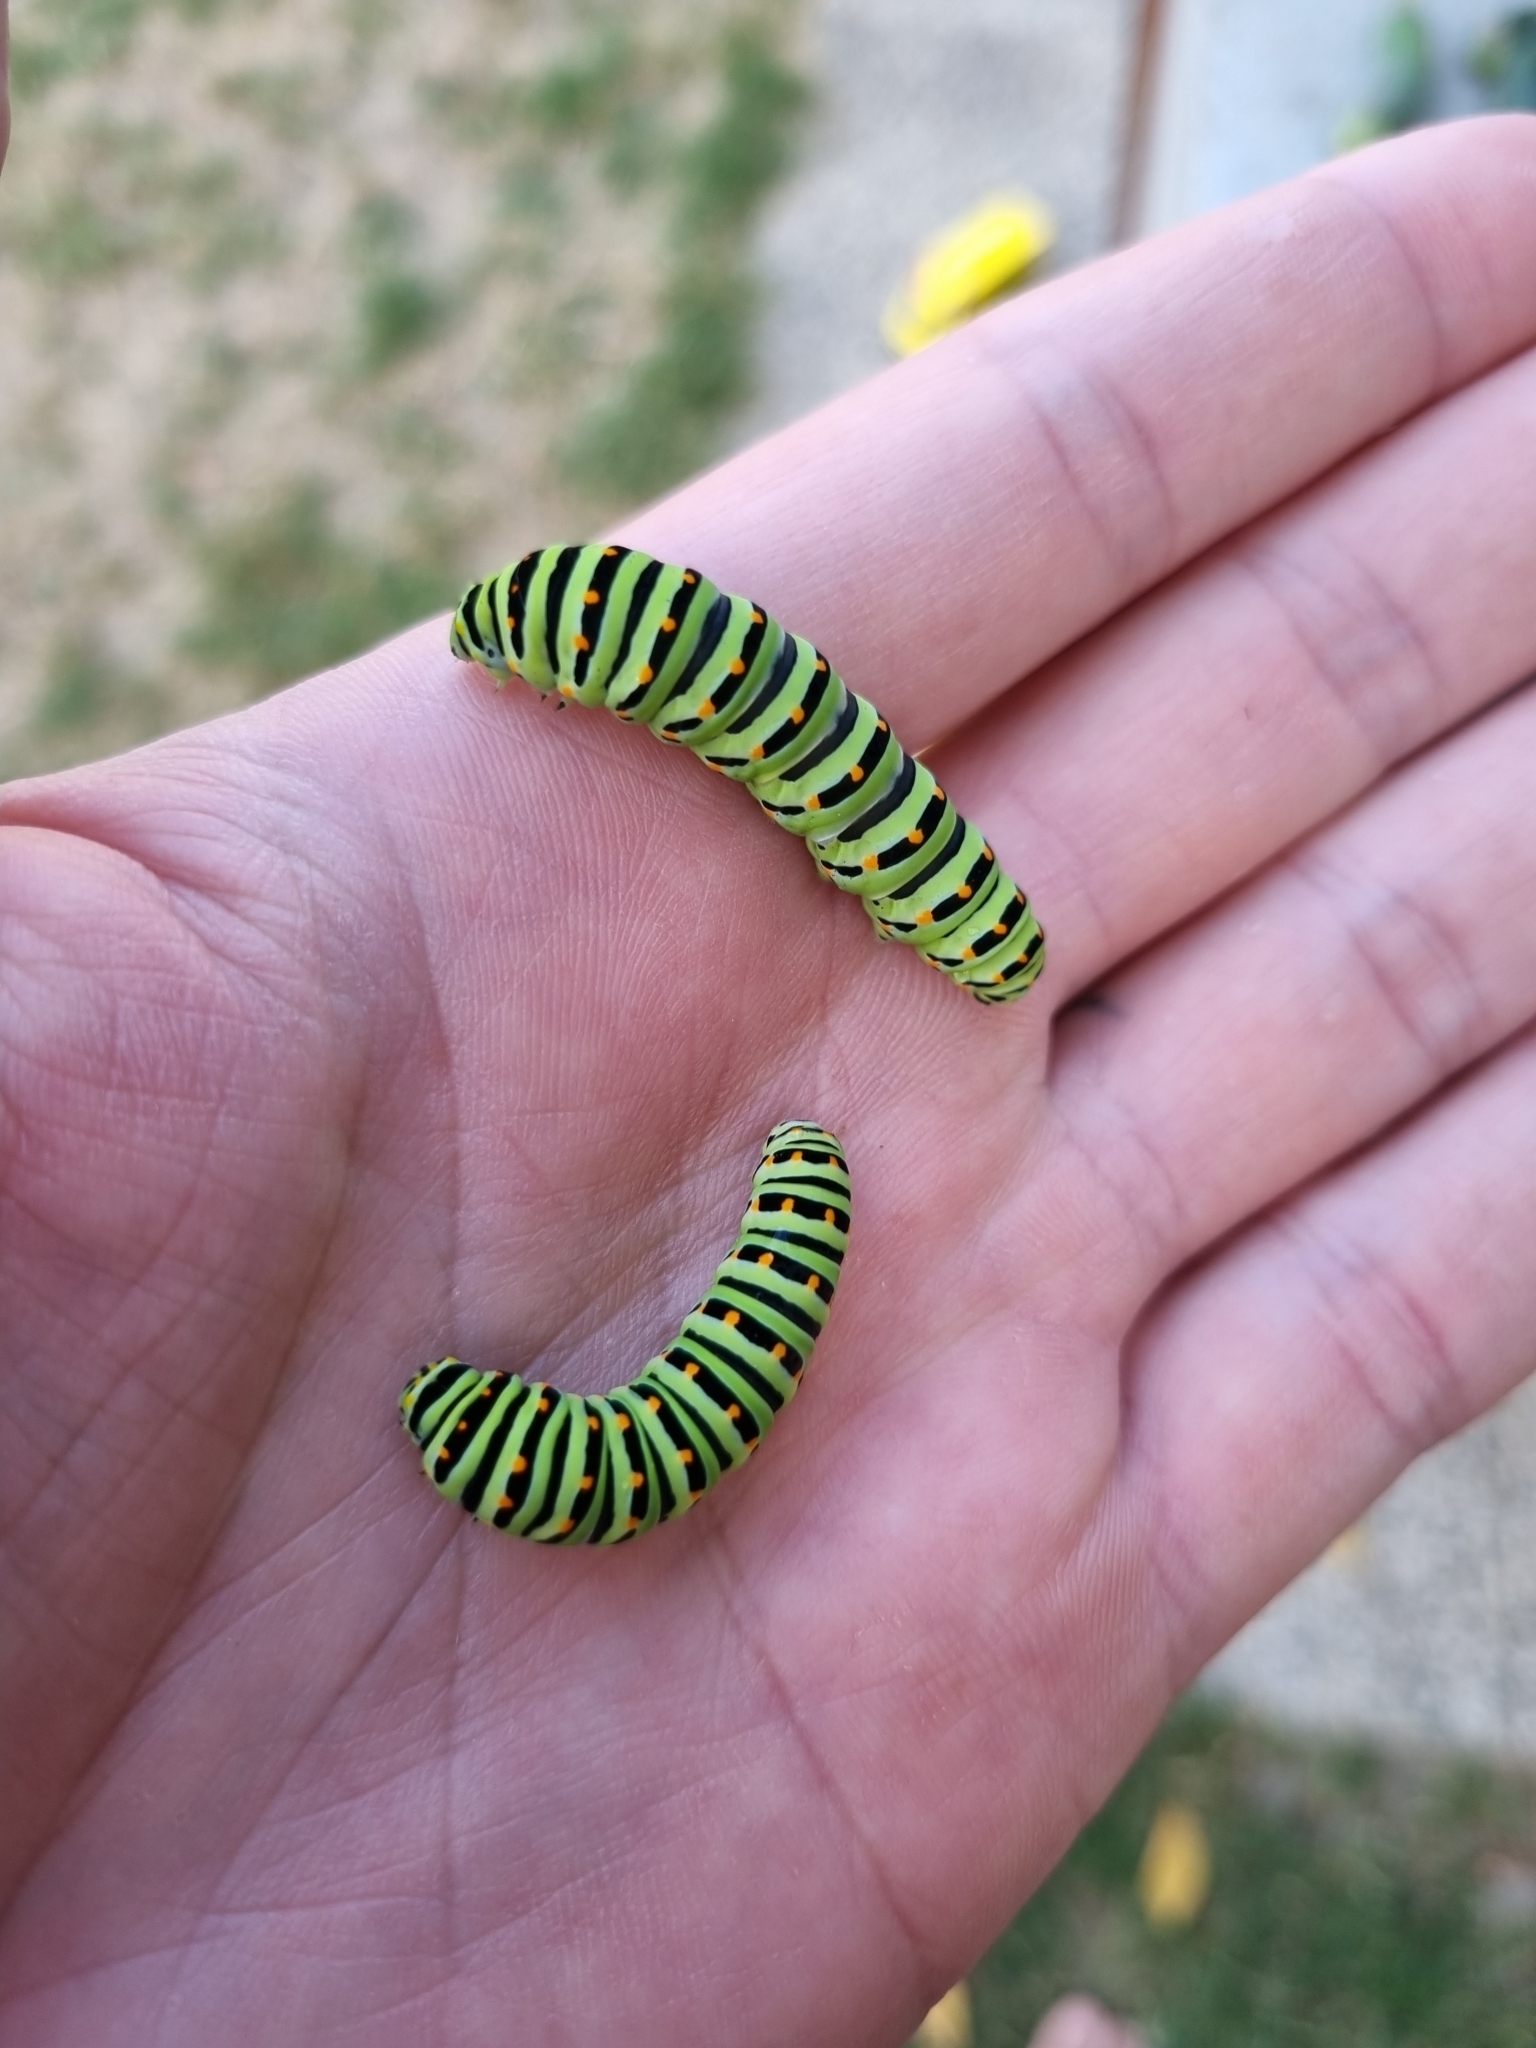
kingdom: Animalia
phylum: Arthropoda
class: Insecta
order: Lepidoptera
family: Papilionidae
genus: Papilio
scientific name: Papilio machaon
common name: Swallowtail
